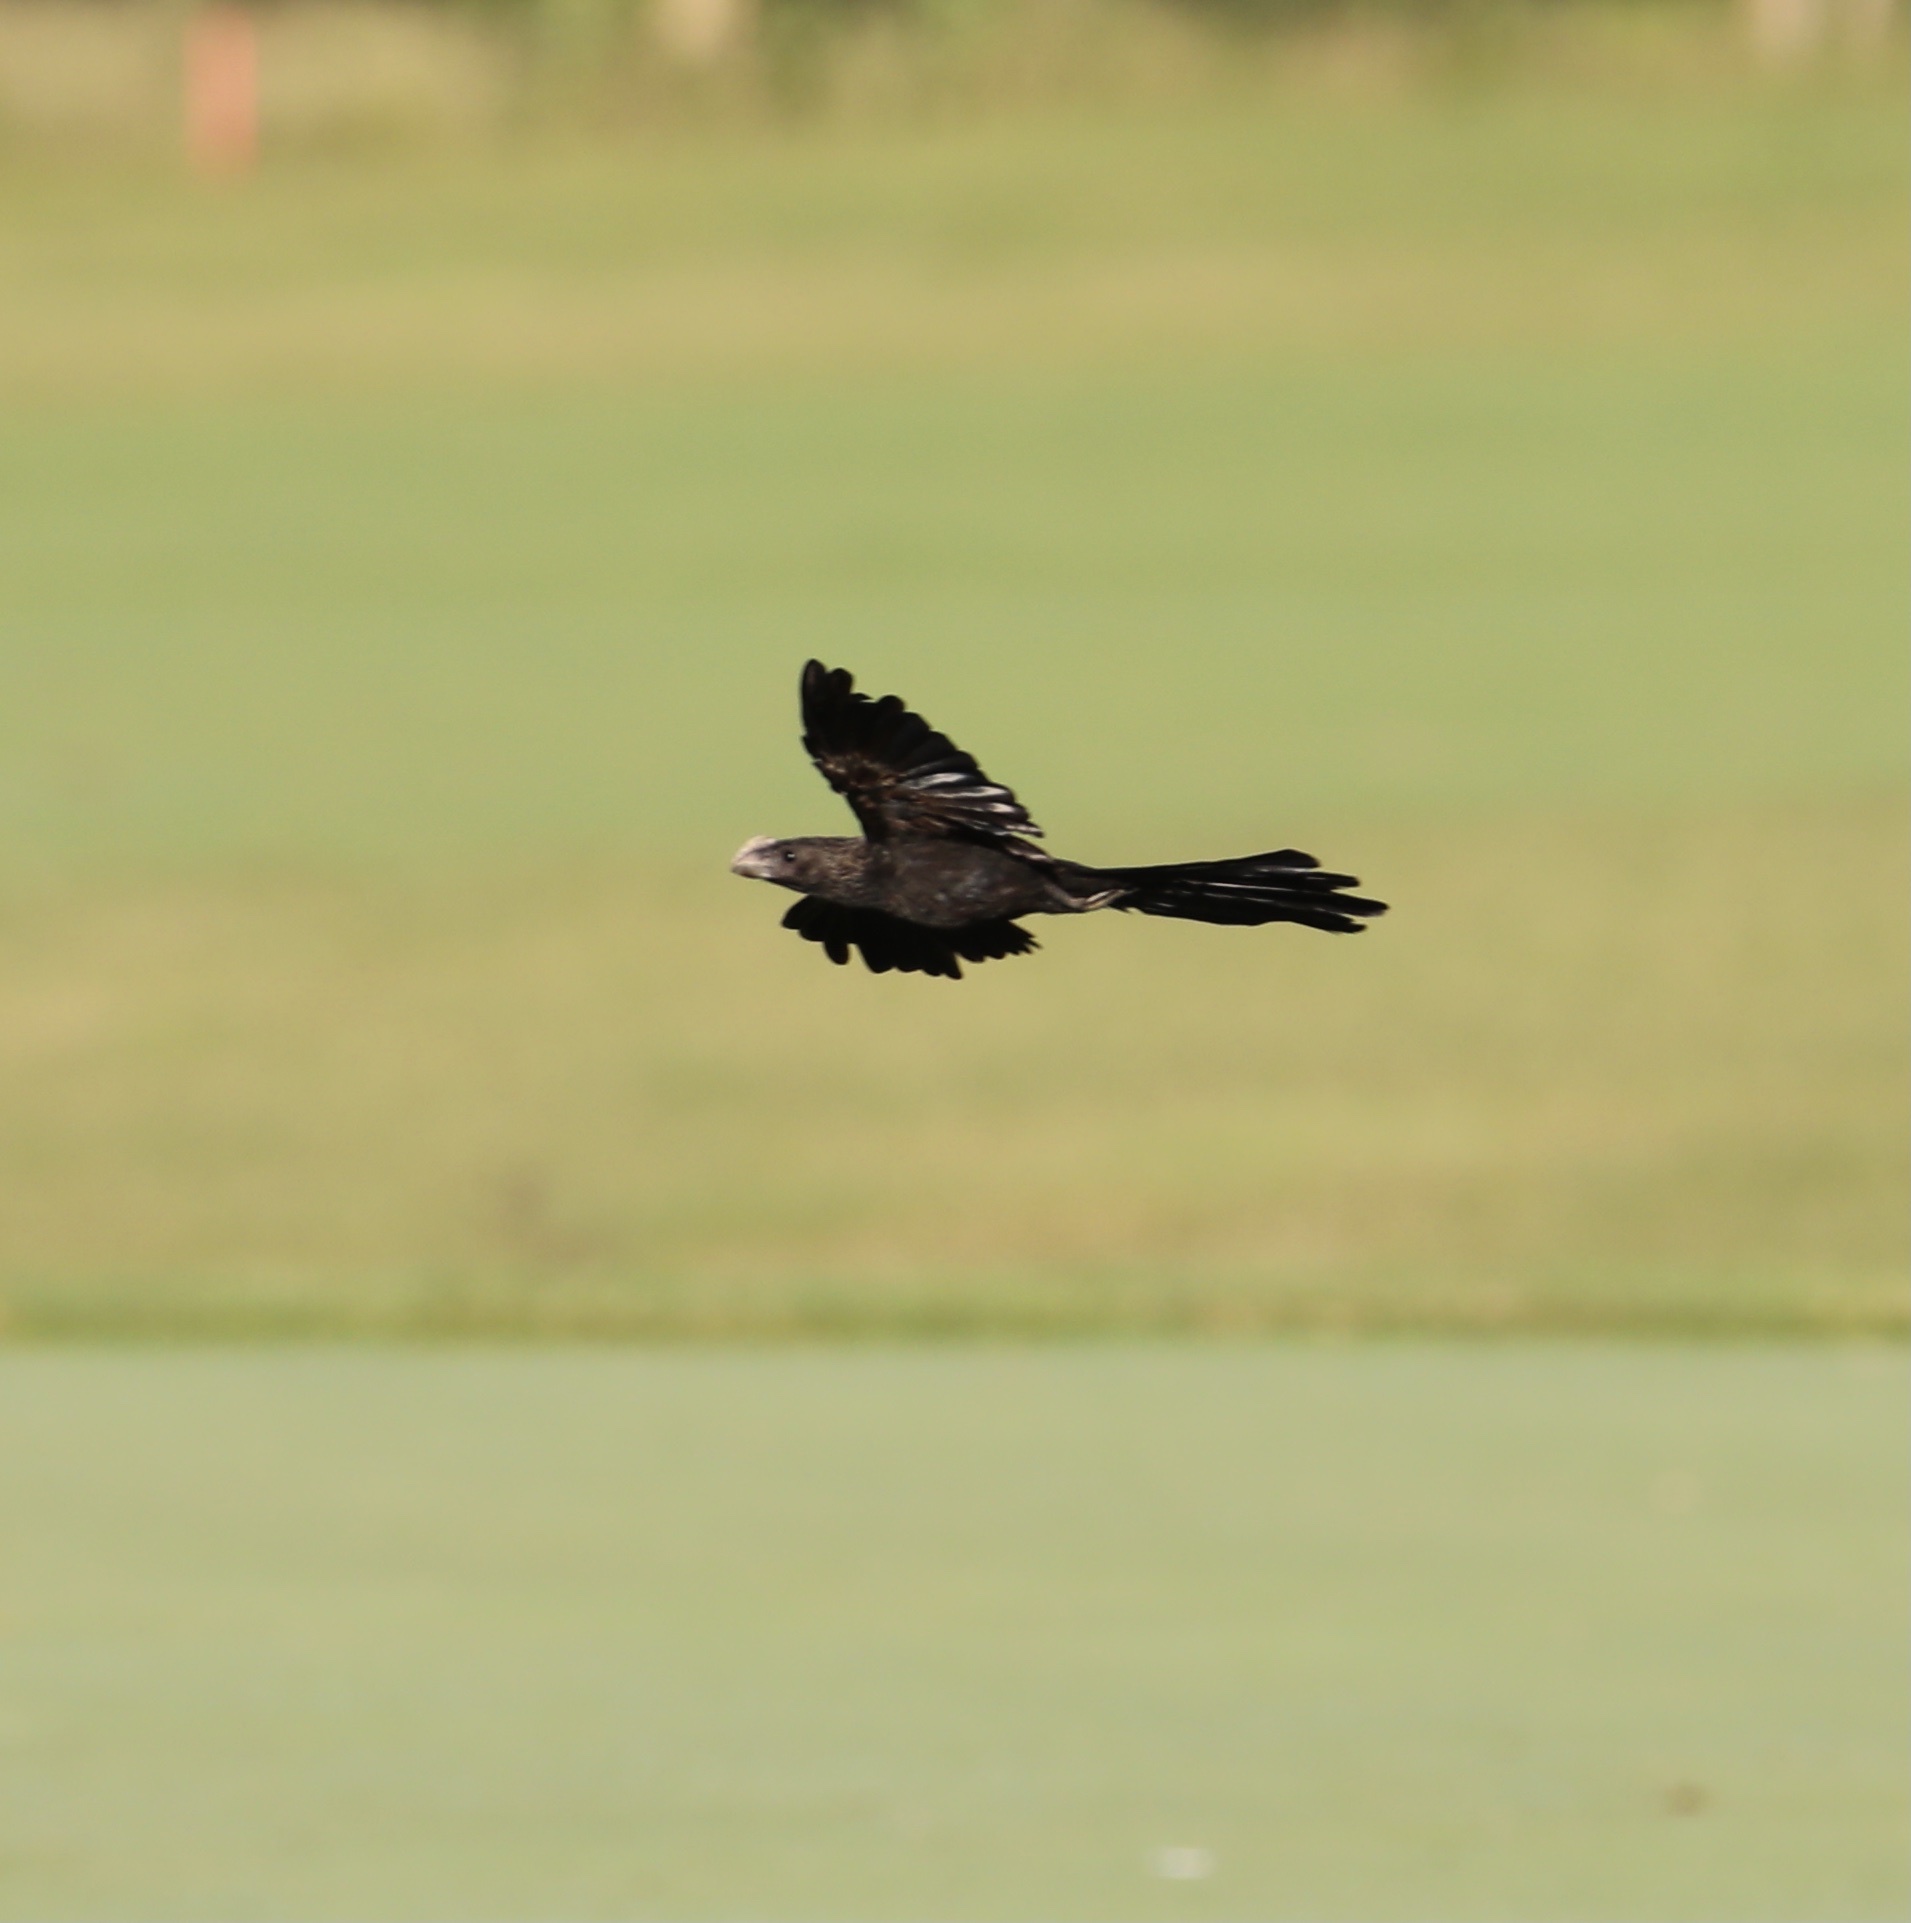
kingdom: Animalia
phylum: Chordata
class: Aves
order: Cuculiformes
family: Cuculidae
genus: Crotophaga
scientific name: Crotophaga ani
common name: Smooth-billed ani
